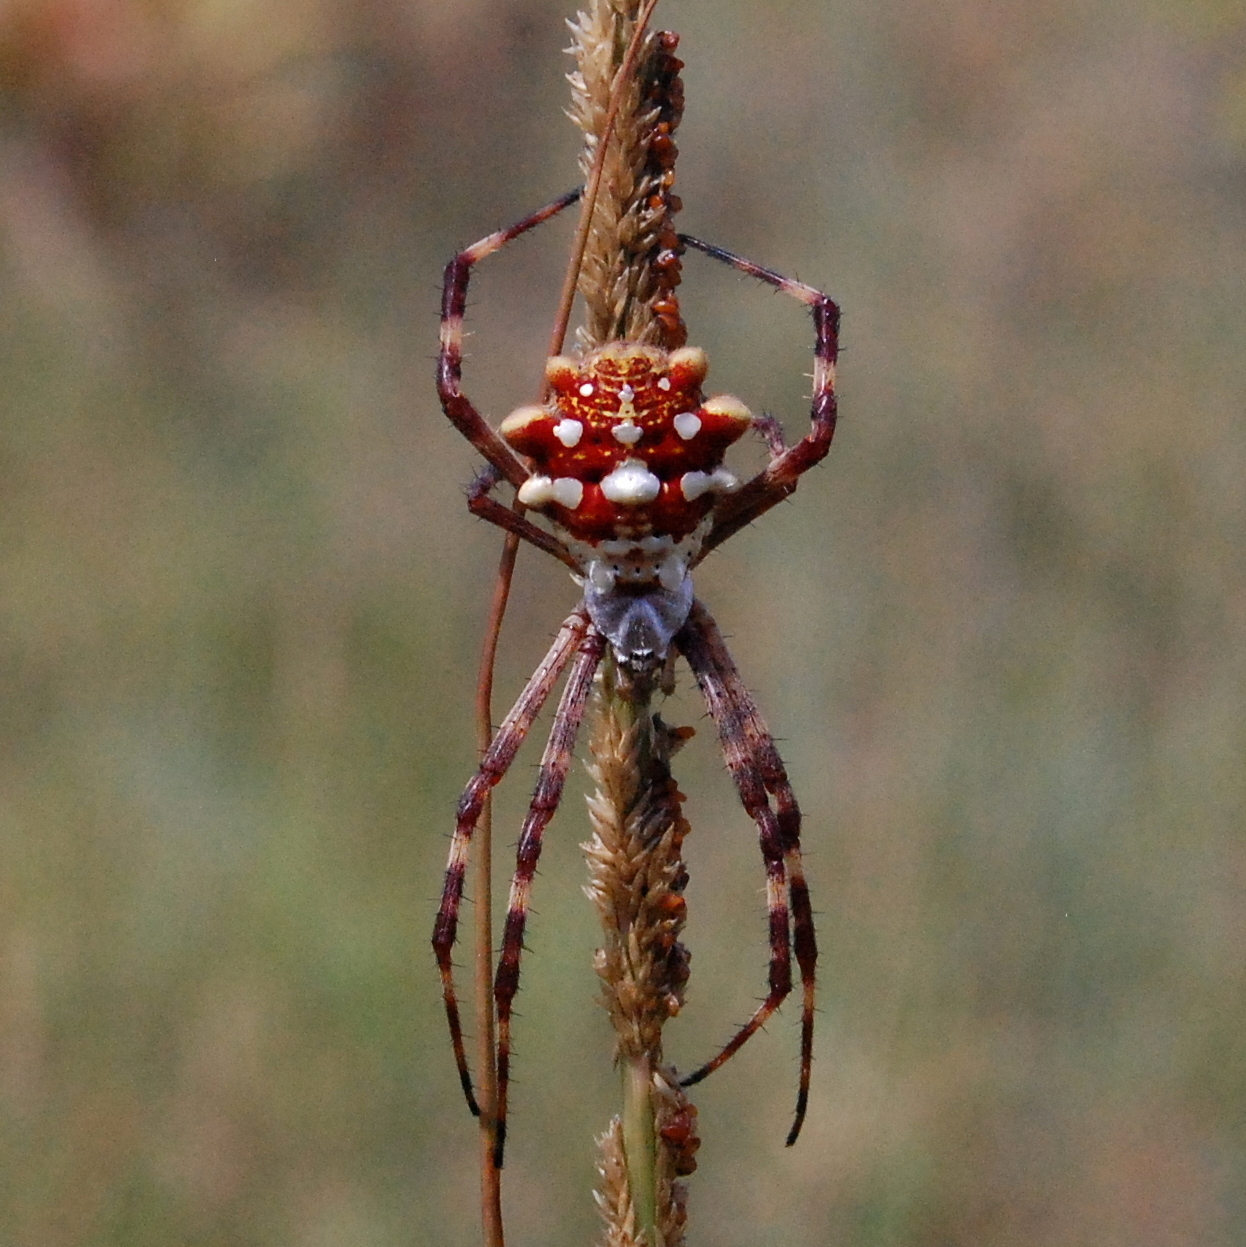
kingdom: Animalia
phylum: Arthropoda
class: Arachnida
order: Araneae
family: Araneidae
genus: Argiope
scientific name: Argiope argentata
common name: Orb weavers
